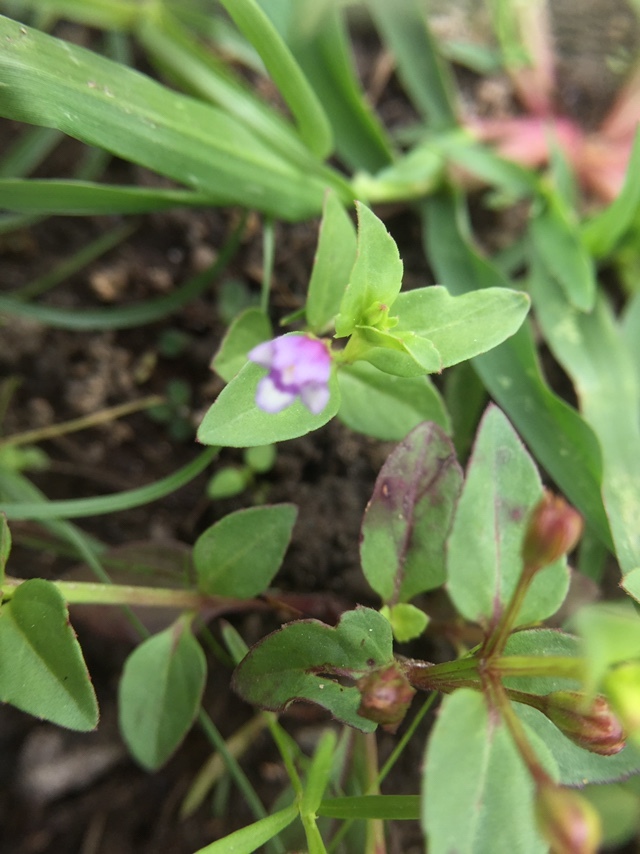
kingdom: Plantae
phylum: Tracheophyta
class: Magnoliopsida
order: Lamiales
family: Linderniaceae
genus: Torenia
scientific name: Torenia crustacea
